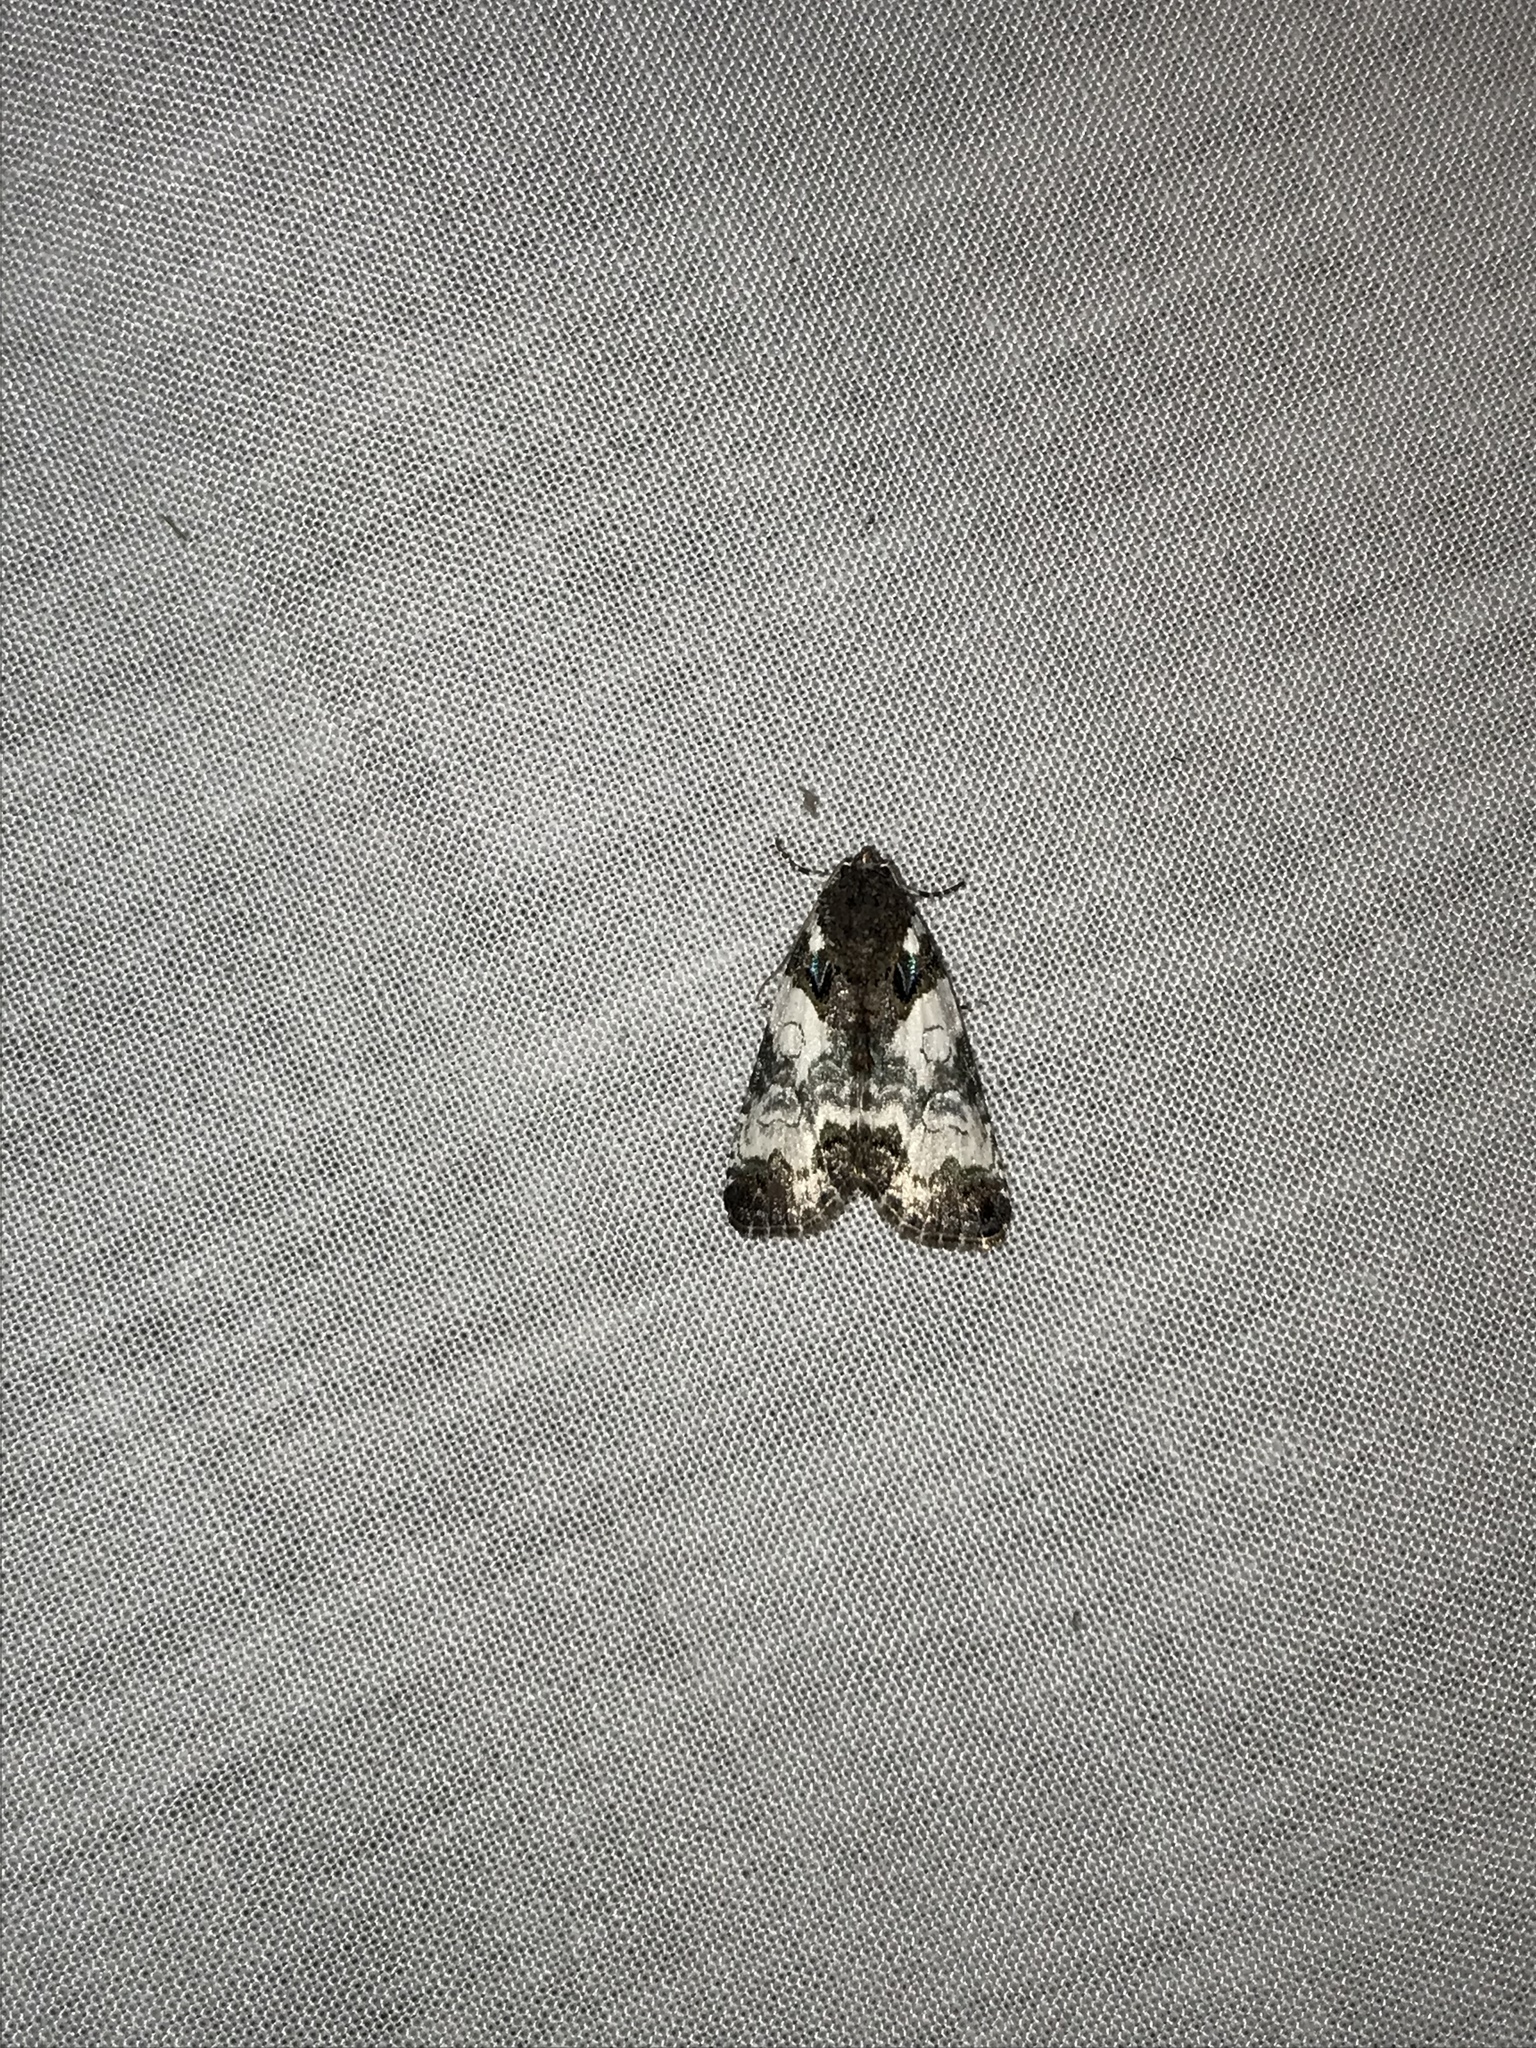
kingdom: Animalia
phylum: Arthropoda
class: Insecta
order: Lepidoptera
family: Noctuidae
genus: Cerma
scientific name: Cerma cerintha
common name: Tufted bird-dropping moth
